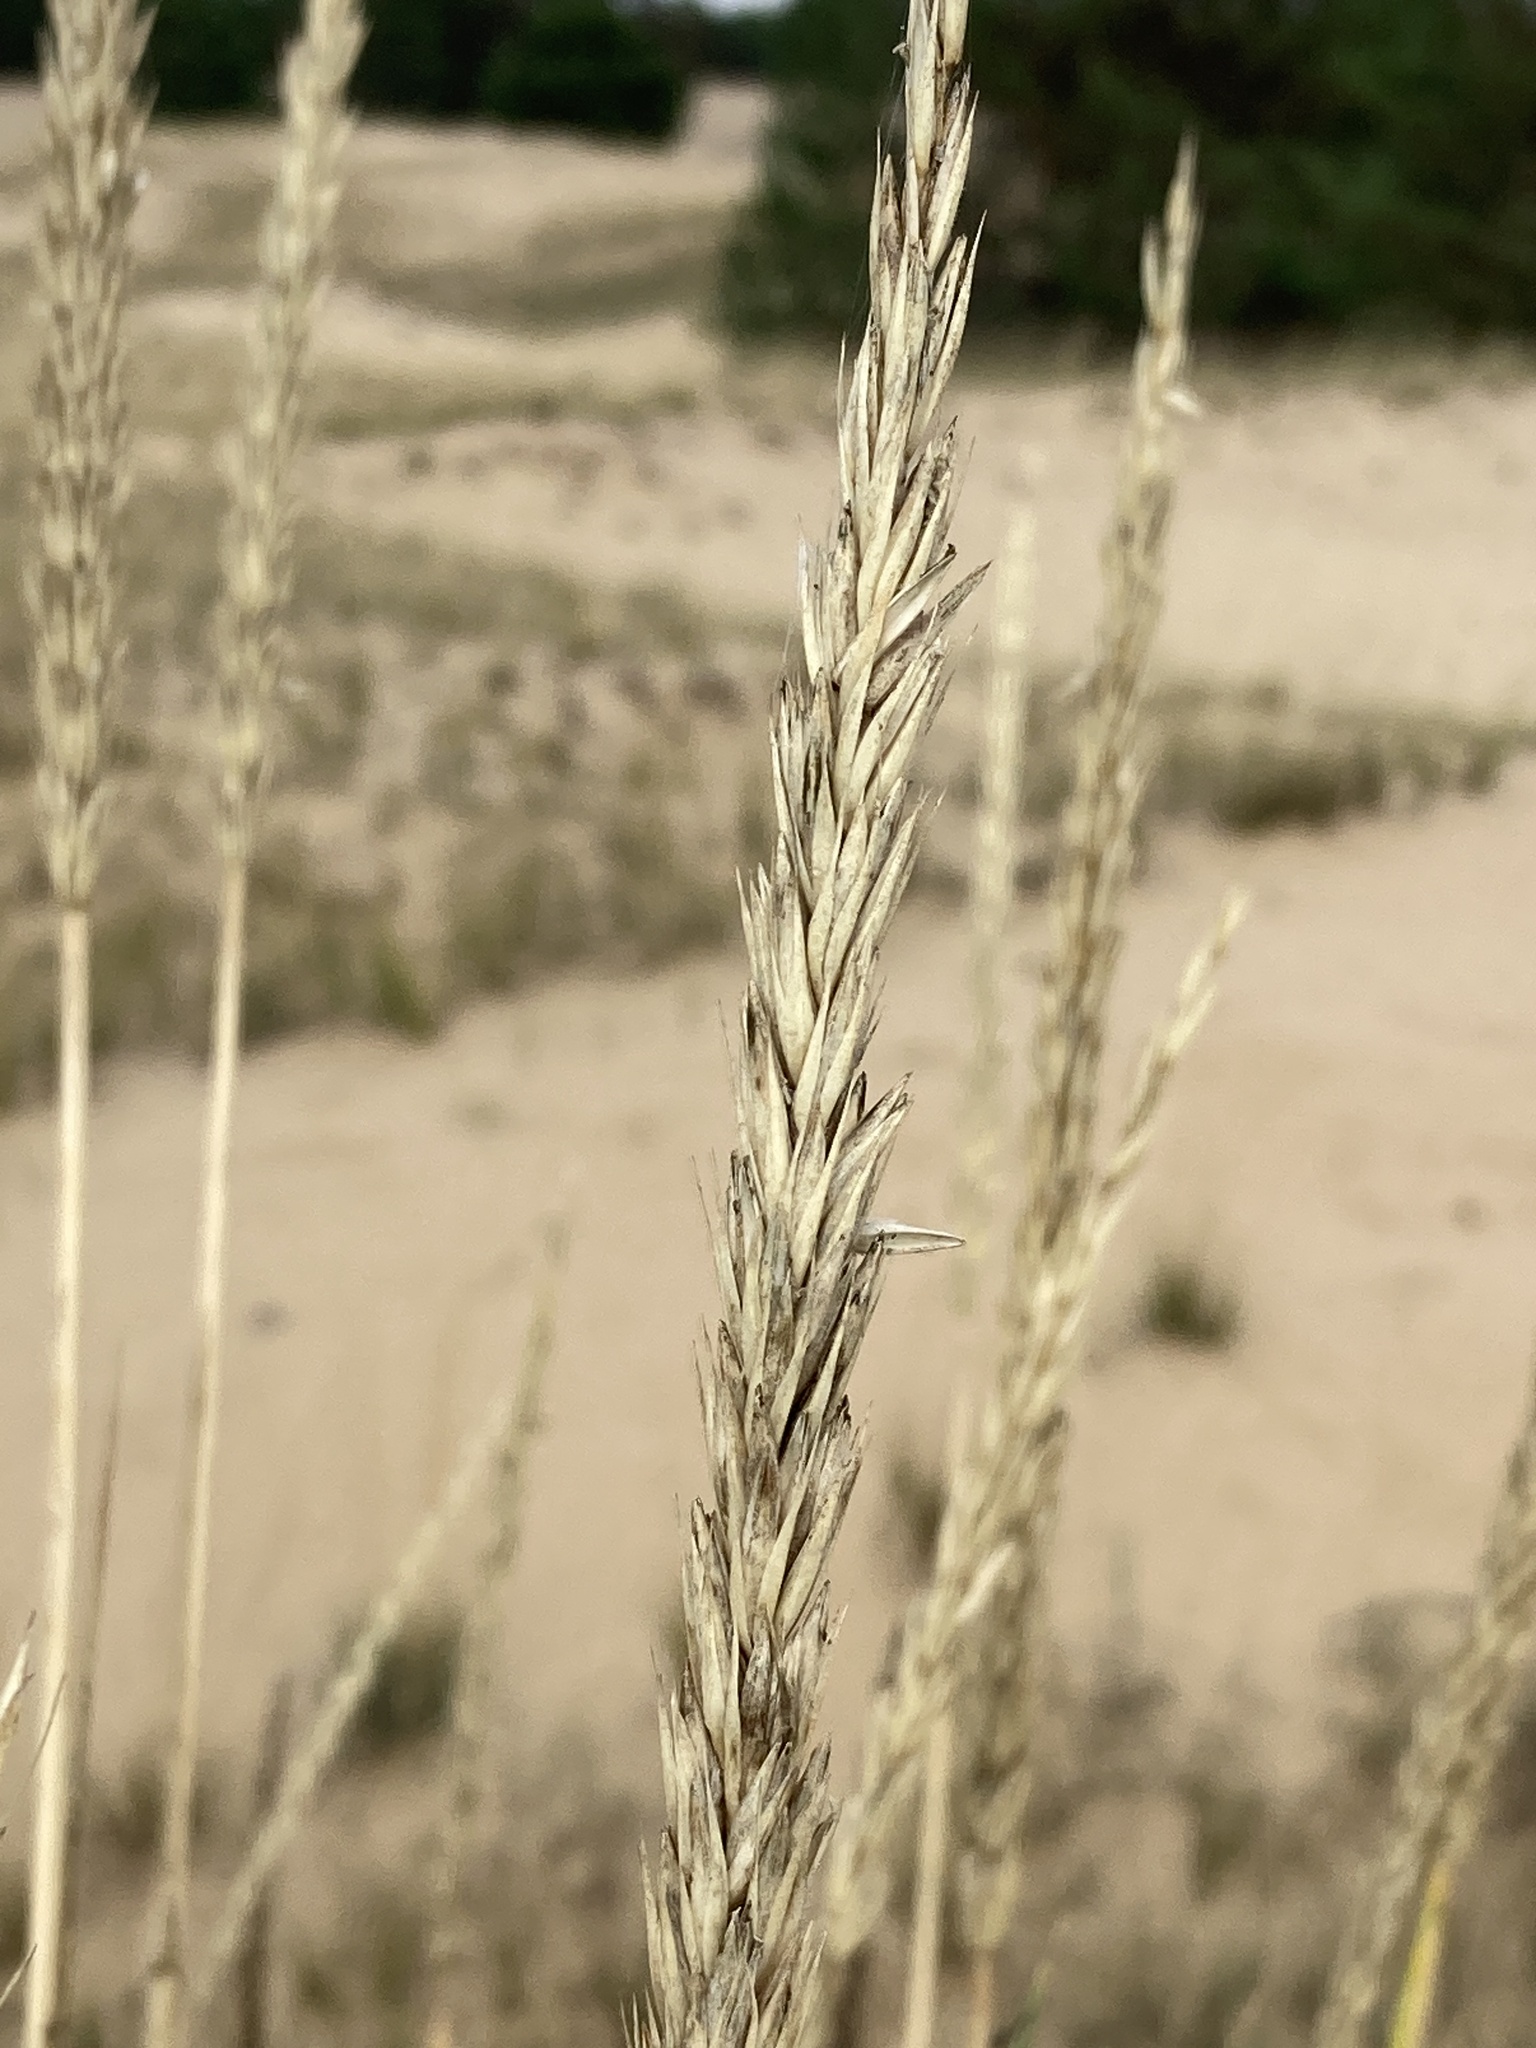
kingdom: Plantae
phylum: Tracheophyta
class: Liliopsida
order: Poales
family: Poaceae
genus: Leymus
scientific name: Leymus racemosus
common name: Mammoth wildrye
